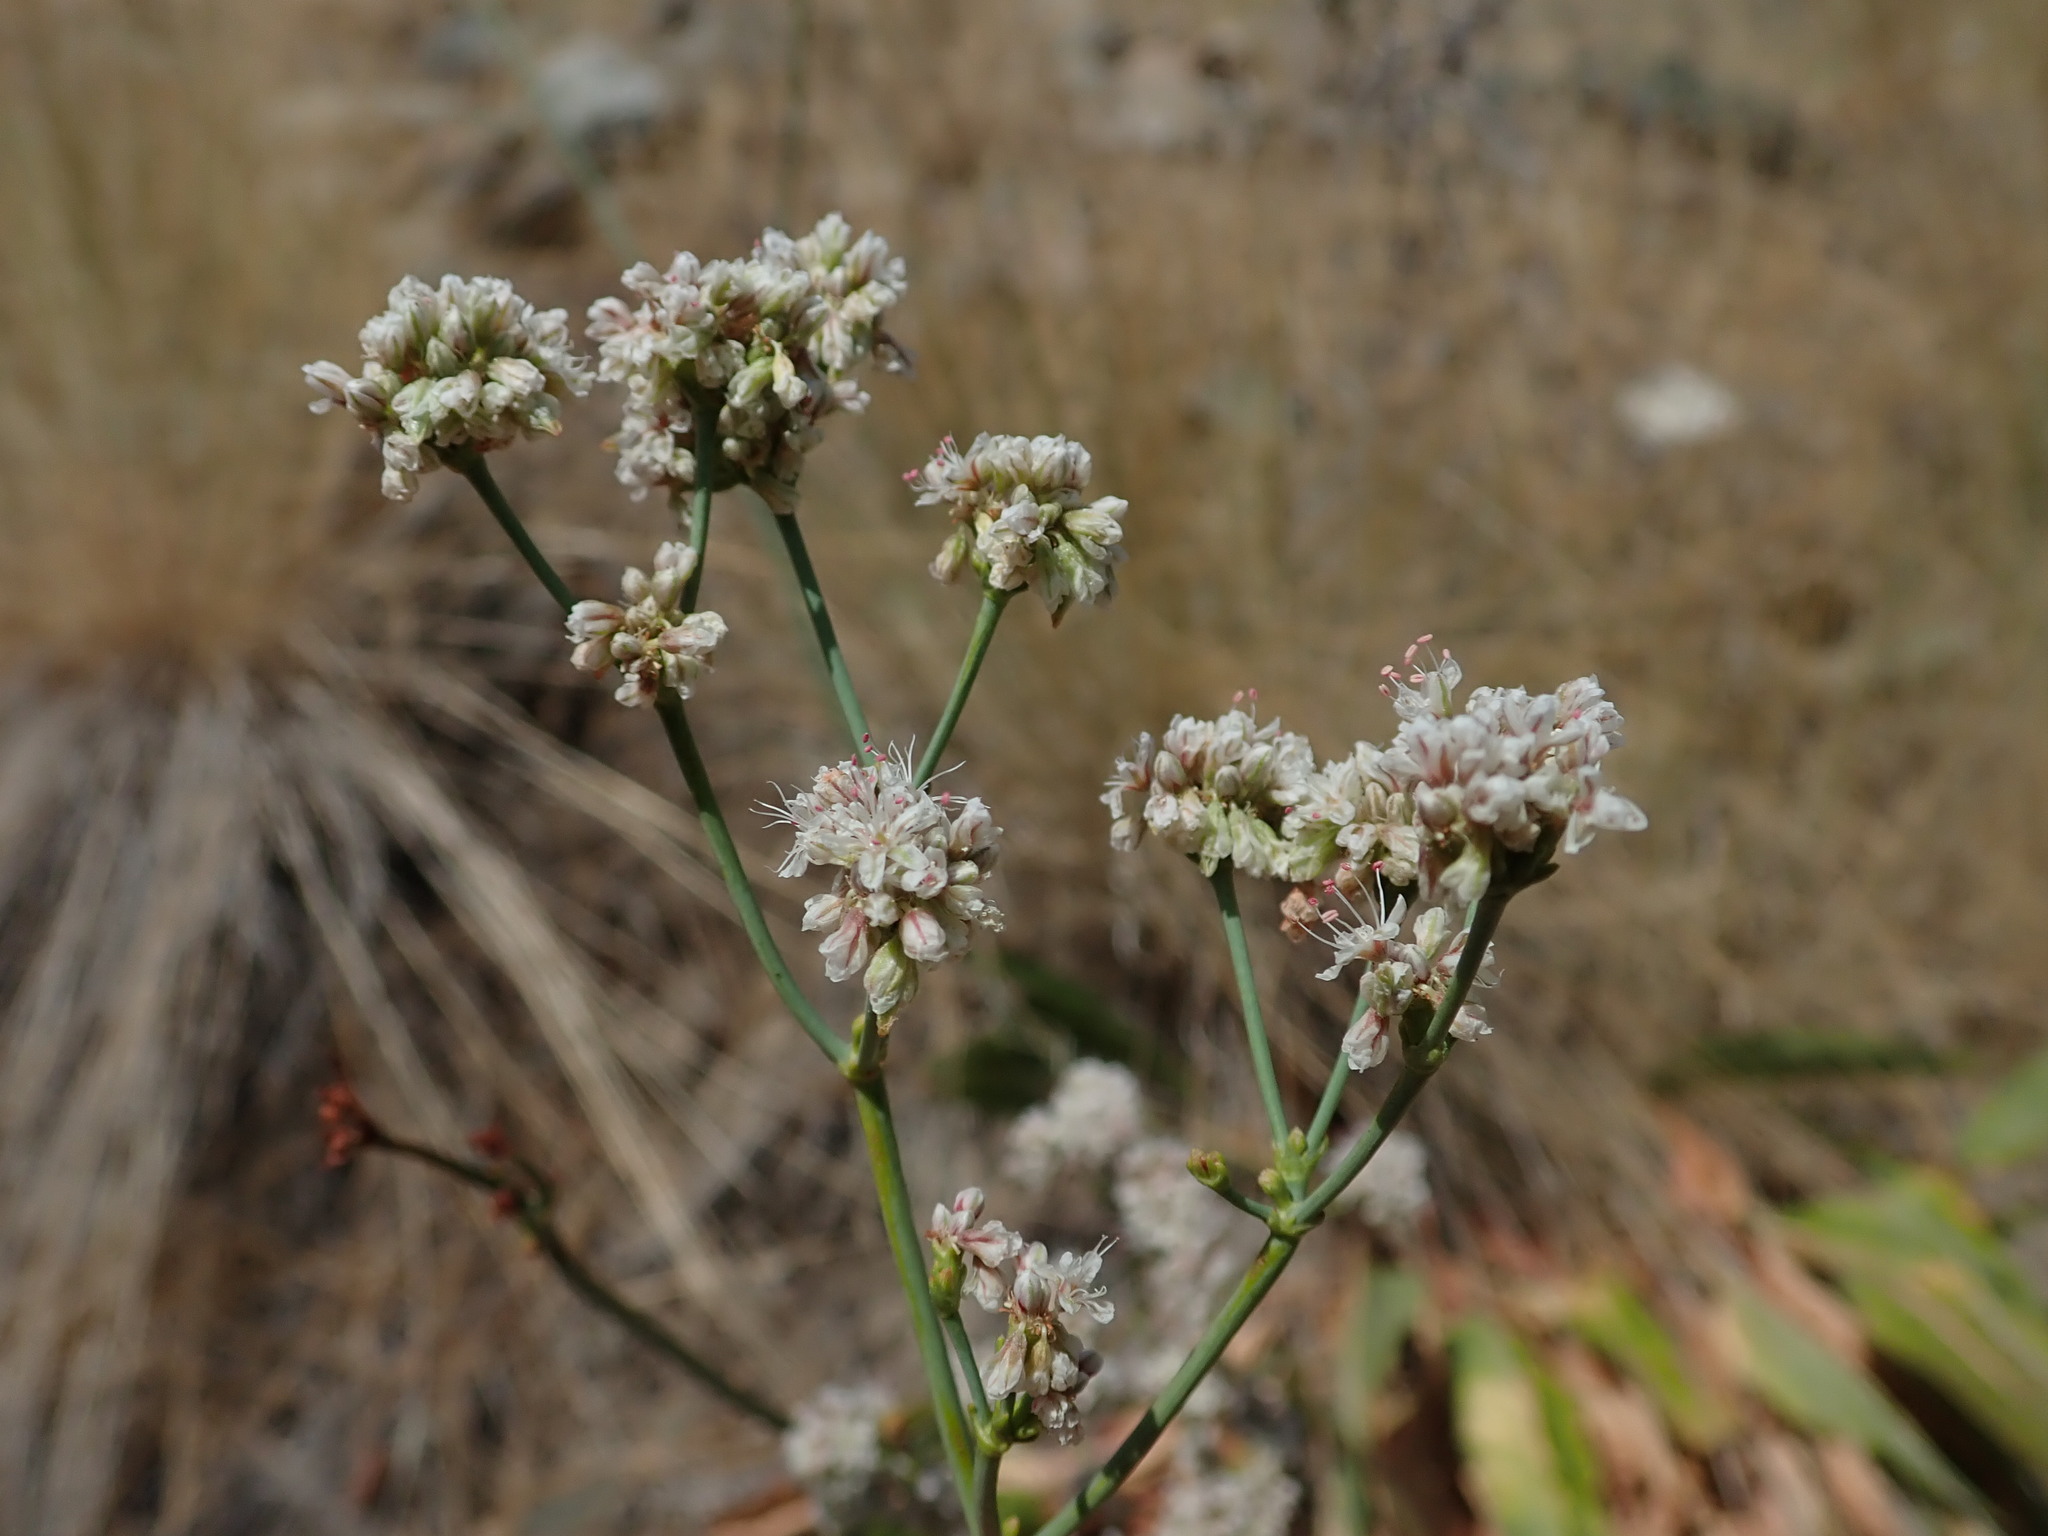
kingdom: Plantae
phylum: Tracheophyta
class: Magnoliopsida
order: Caryophyllales
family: Polygonaceae
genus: Eriogonum
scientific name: Eriogonum elatum
